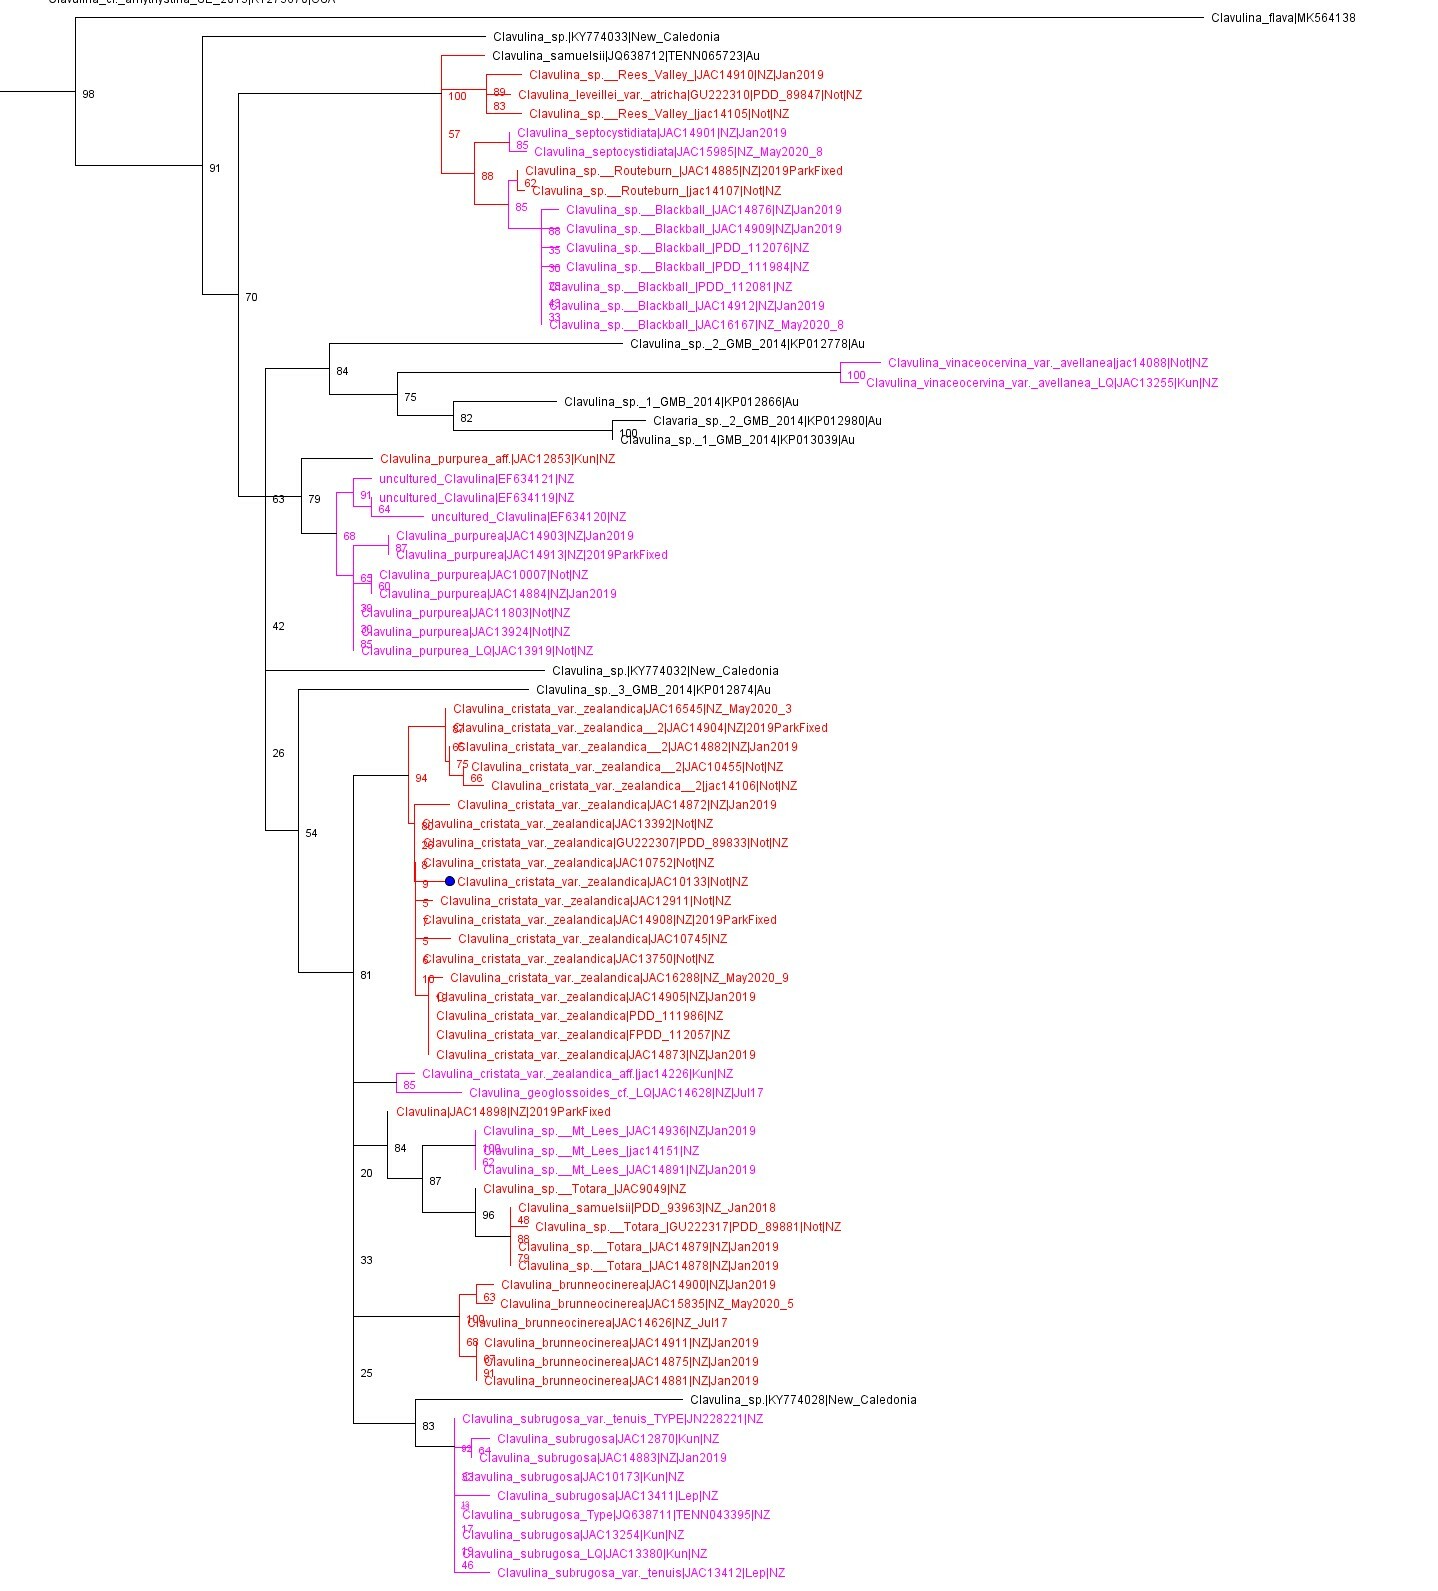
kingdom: Fungi
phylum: Basidiomycota
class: Agaricomycetes
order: Cantharellales
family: Hydnaceae
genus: Clavulina
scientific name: Clavulina
